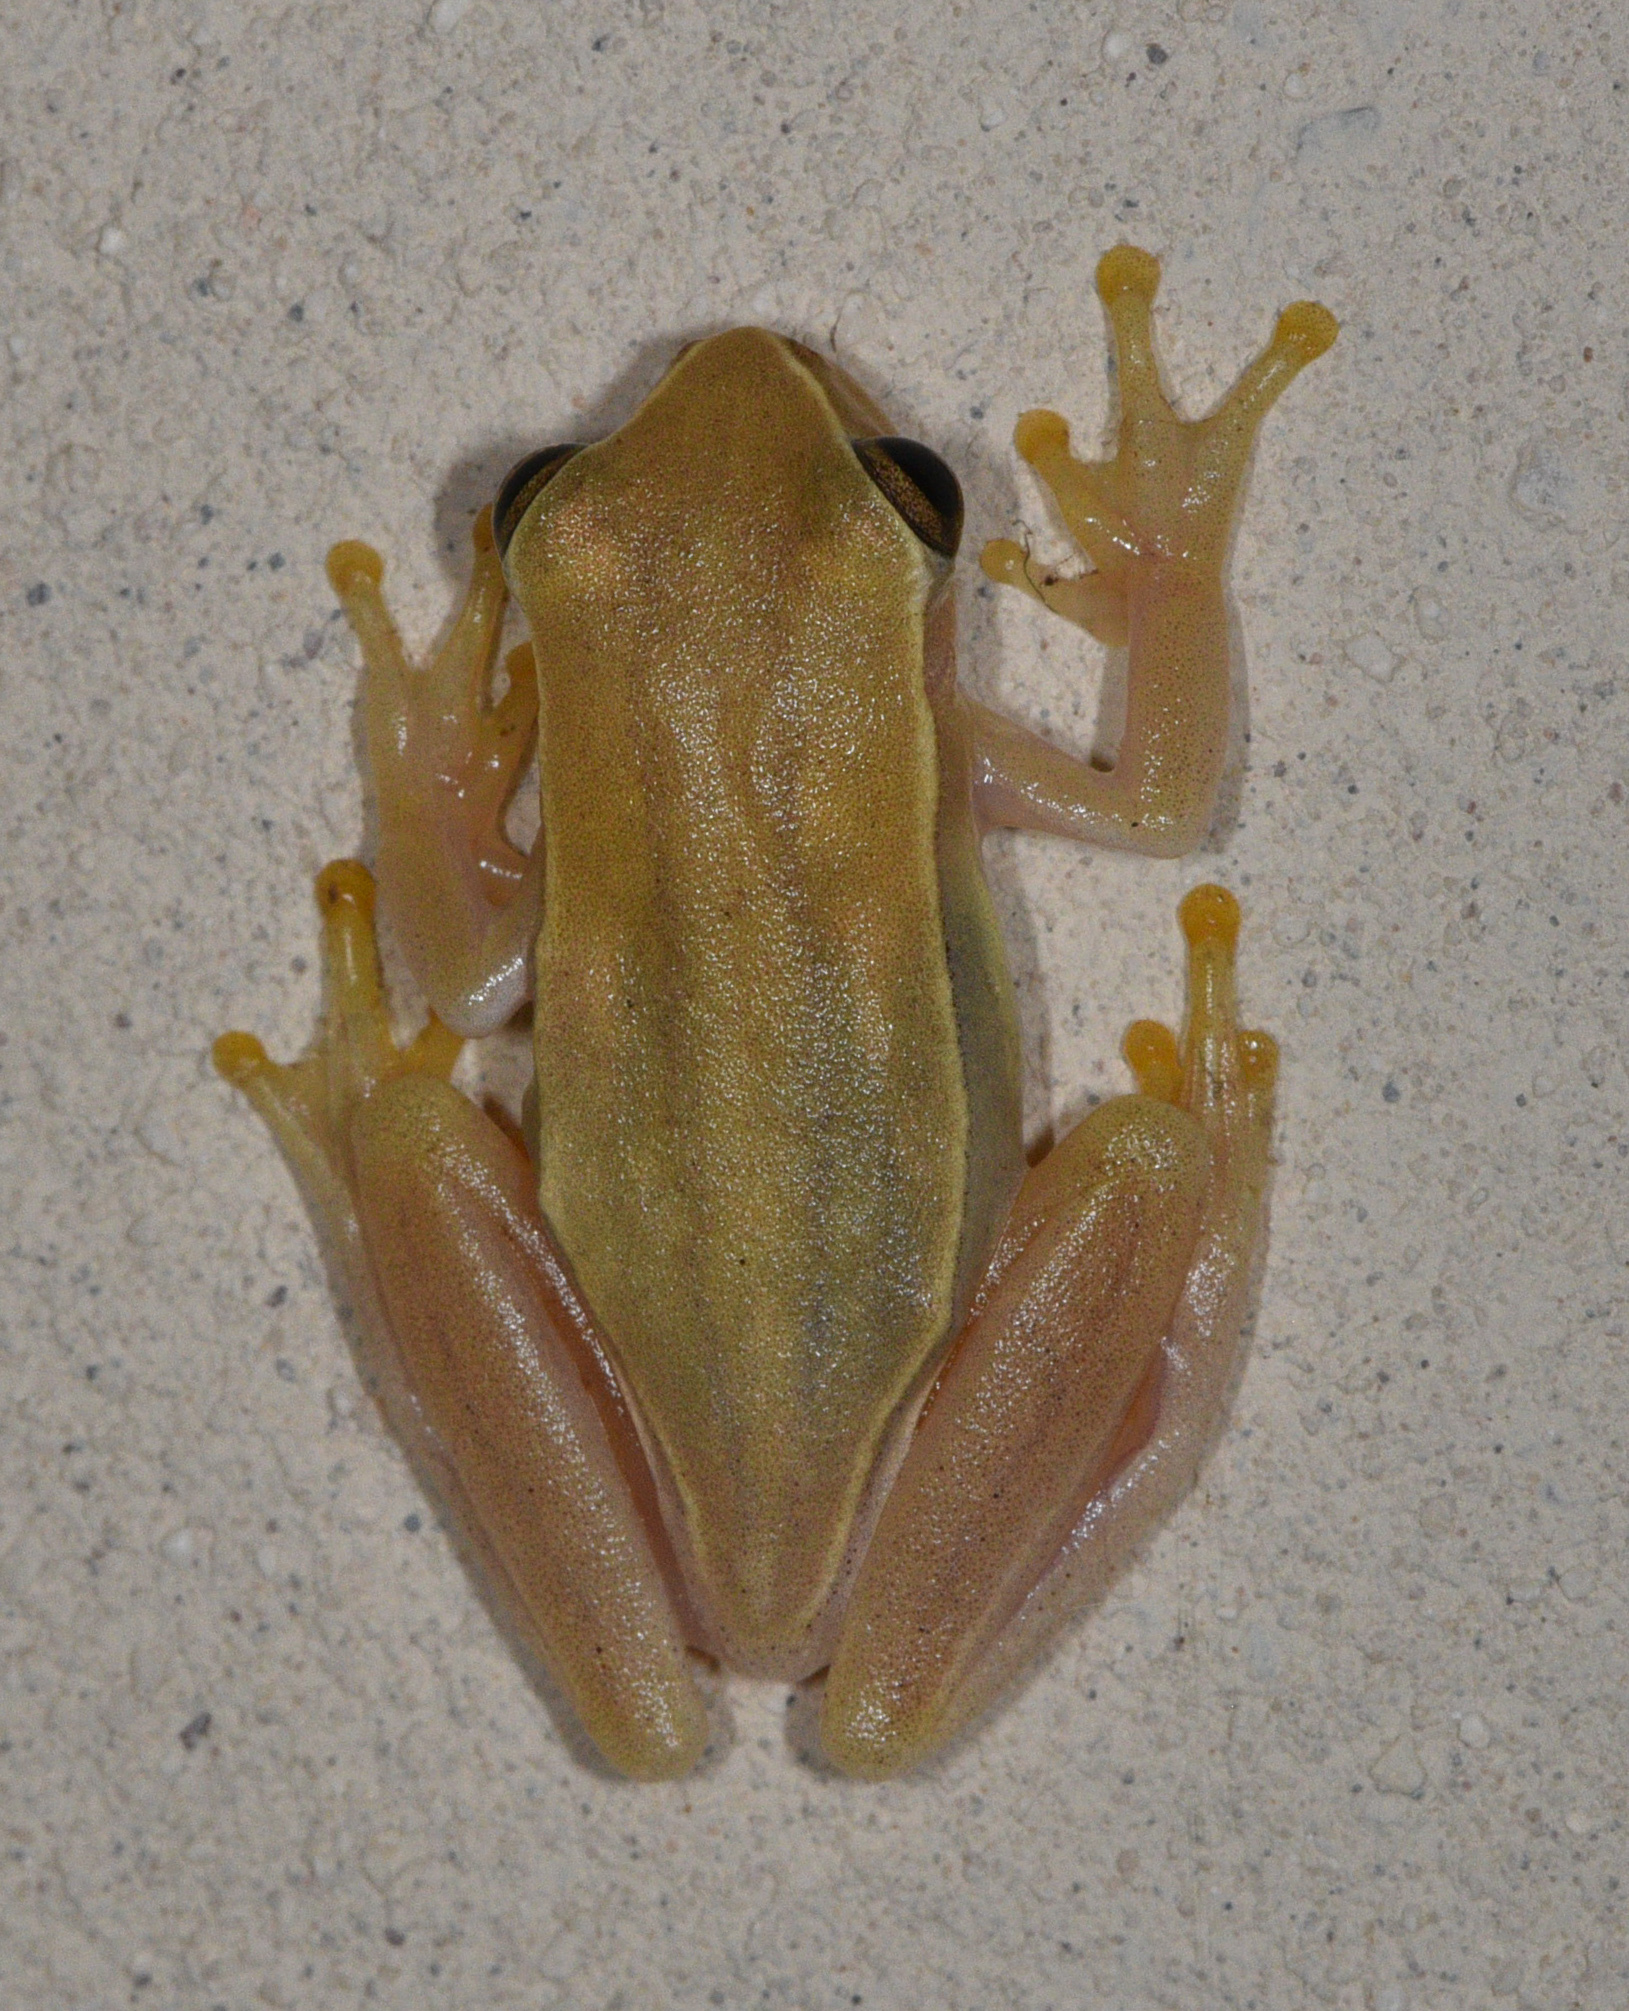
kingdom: Animalia
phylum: Chordata
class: Amphibia
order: Anura
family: Hylidae
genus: Dendropsophus
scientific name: Dendropsophus microcephalus
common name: Small-headed treefrog
